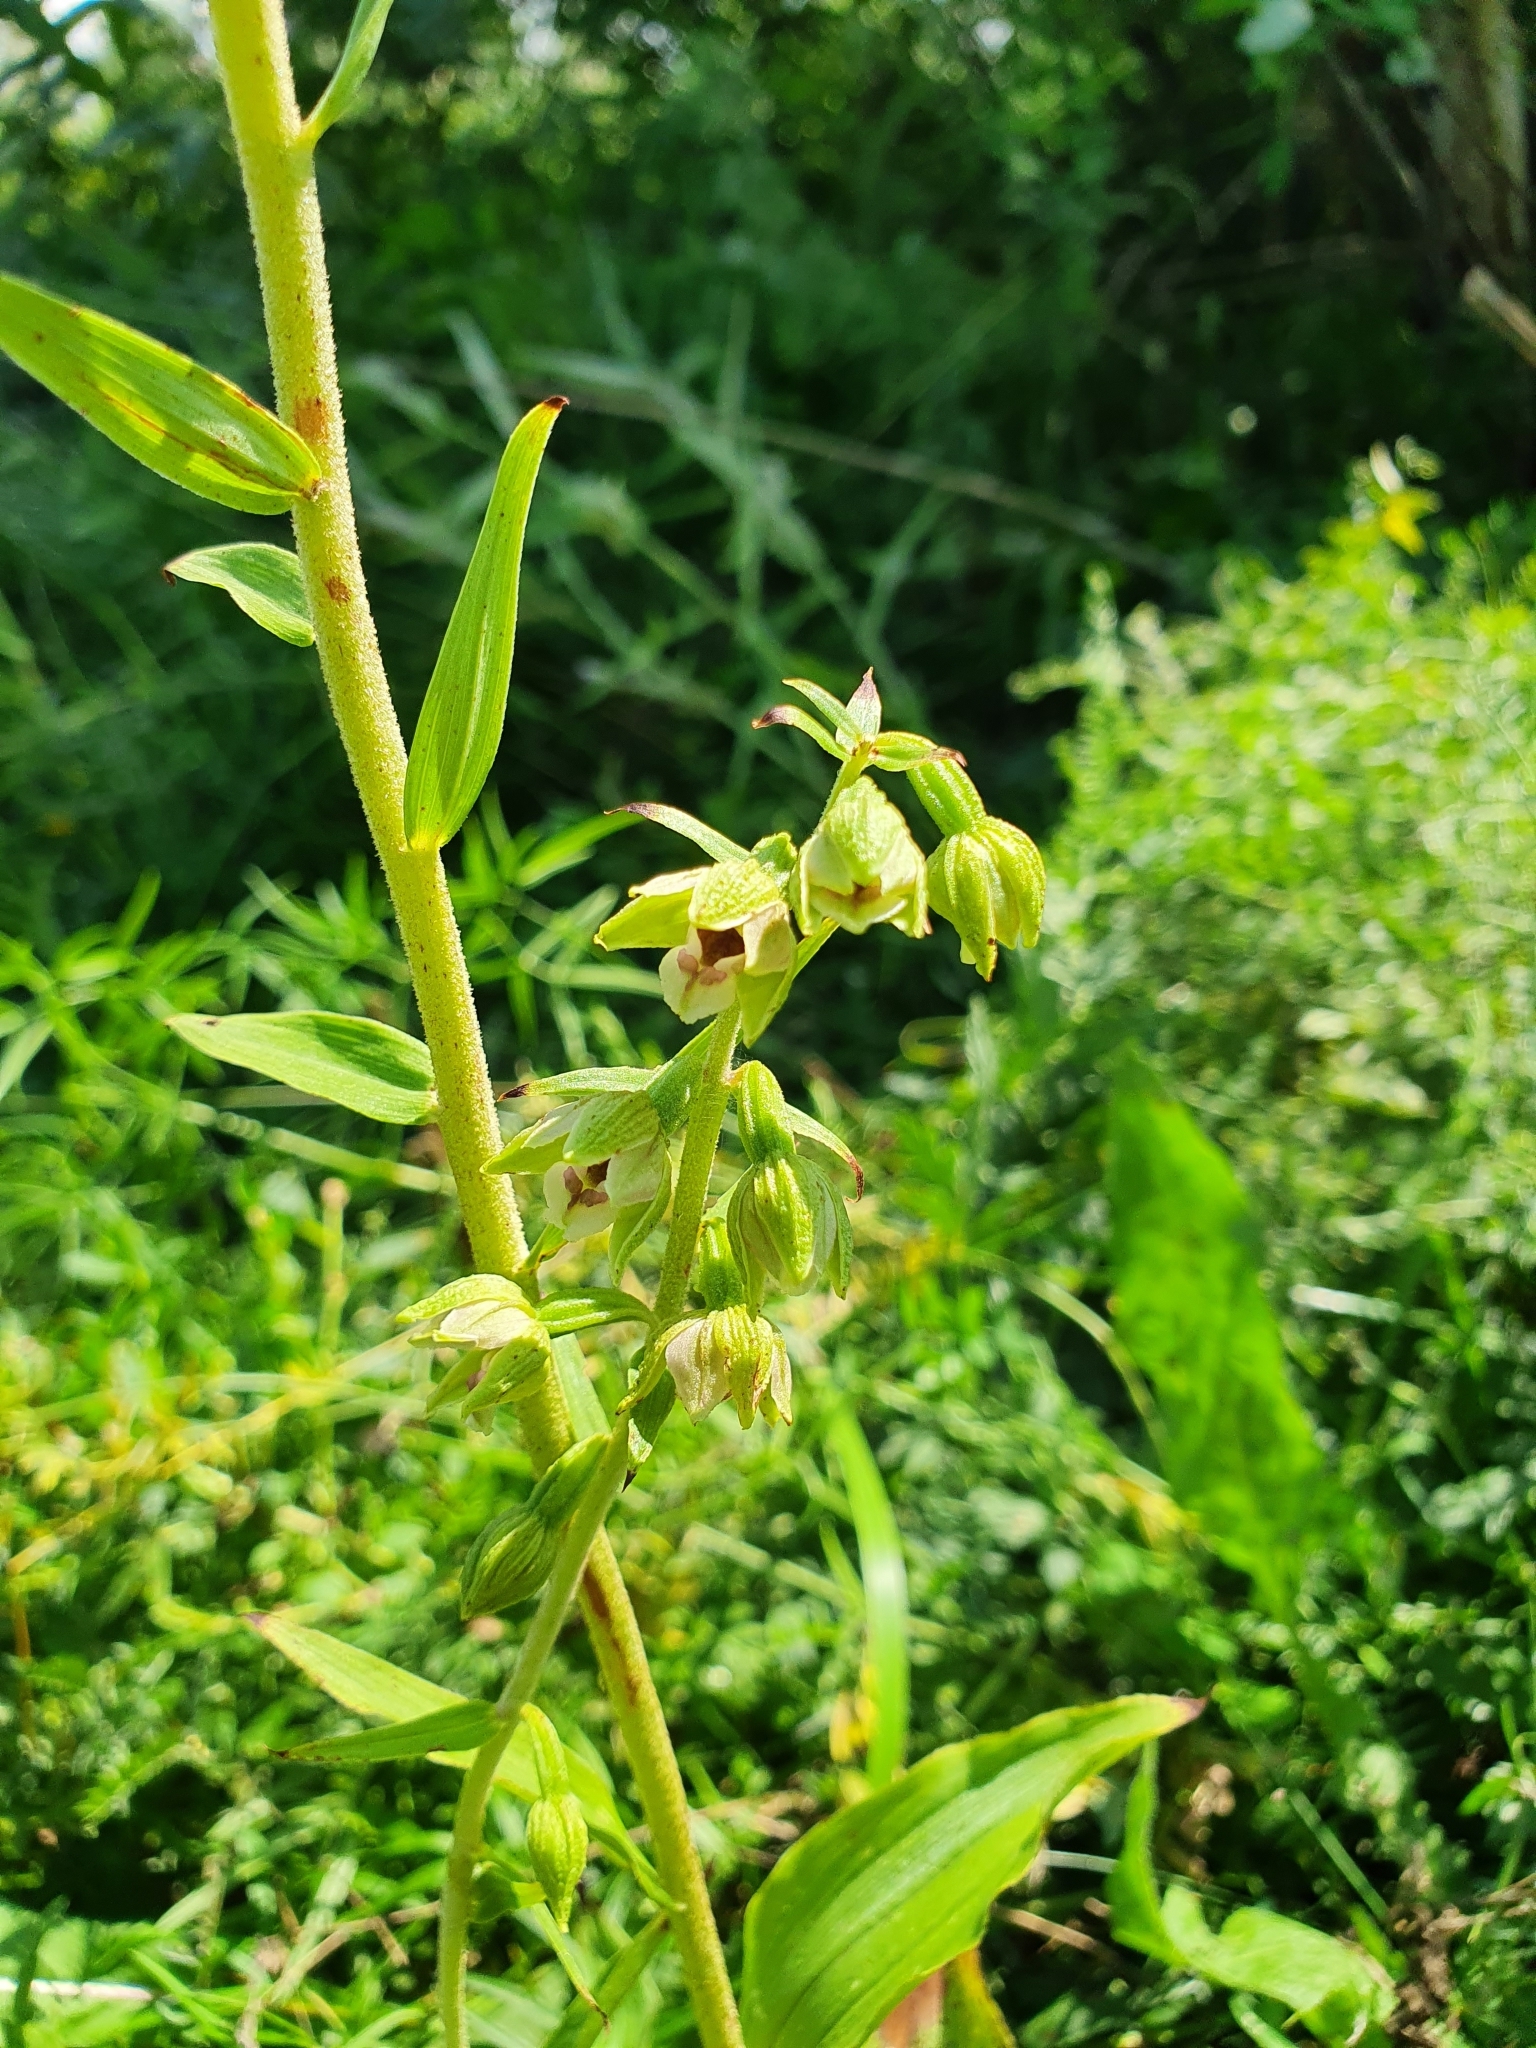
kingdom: Plantae
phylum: Tracheophyta
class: Liliopsida
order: Asparagales
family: Orchidaceae
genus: Epipactis
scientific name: Epipactis helleborine
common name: Broad-leaved helleborine
